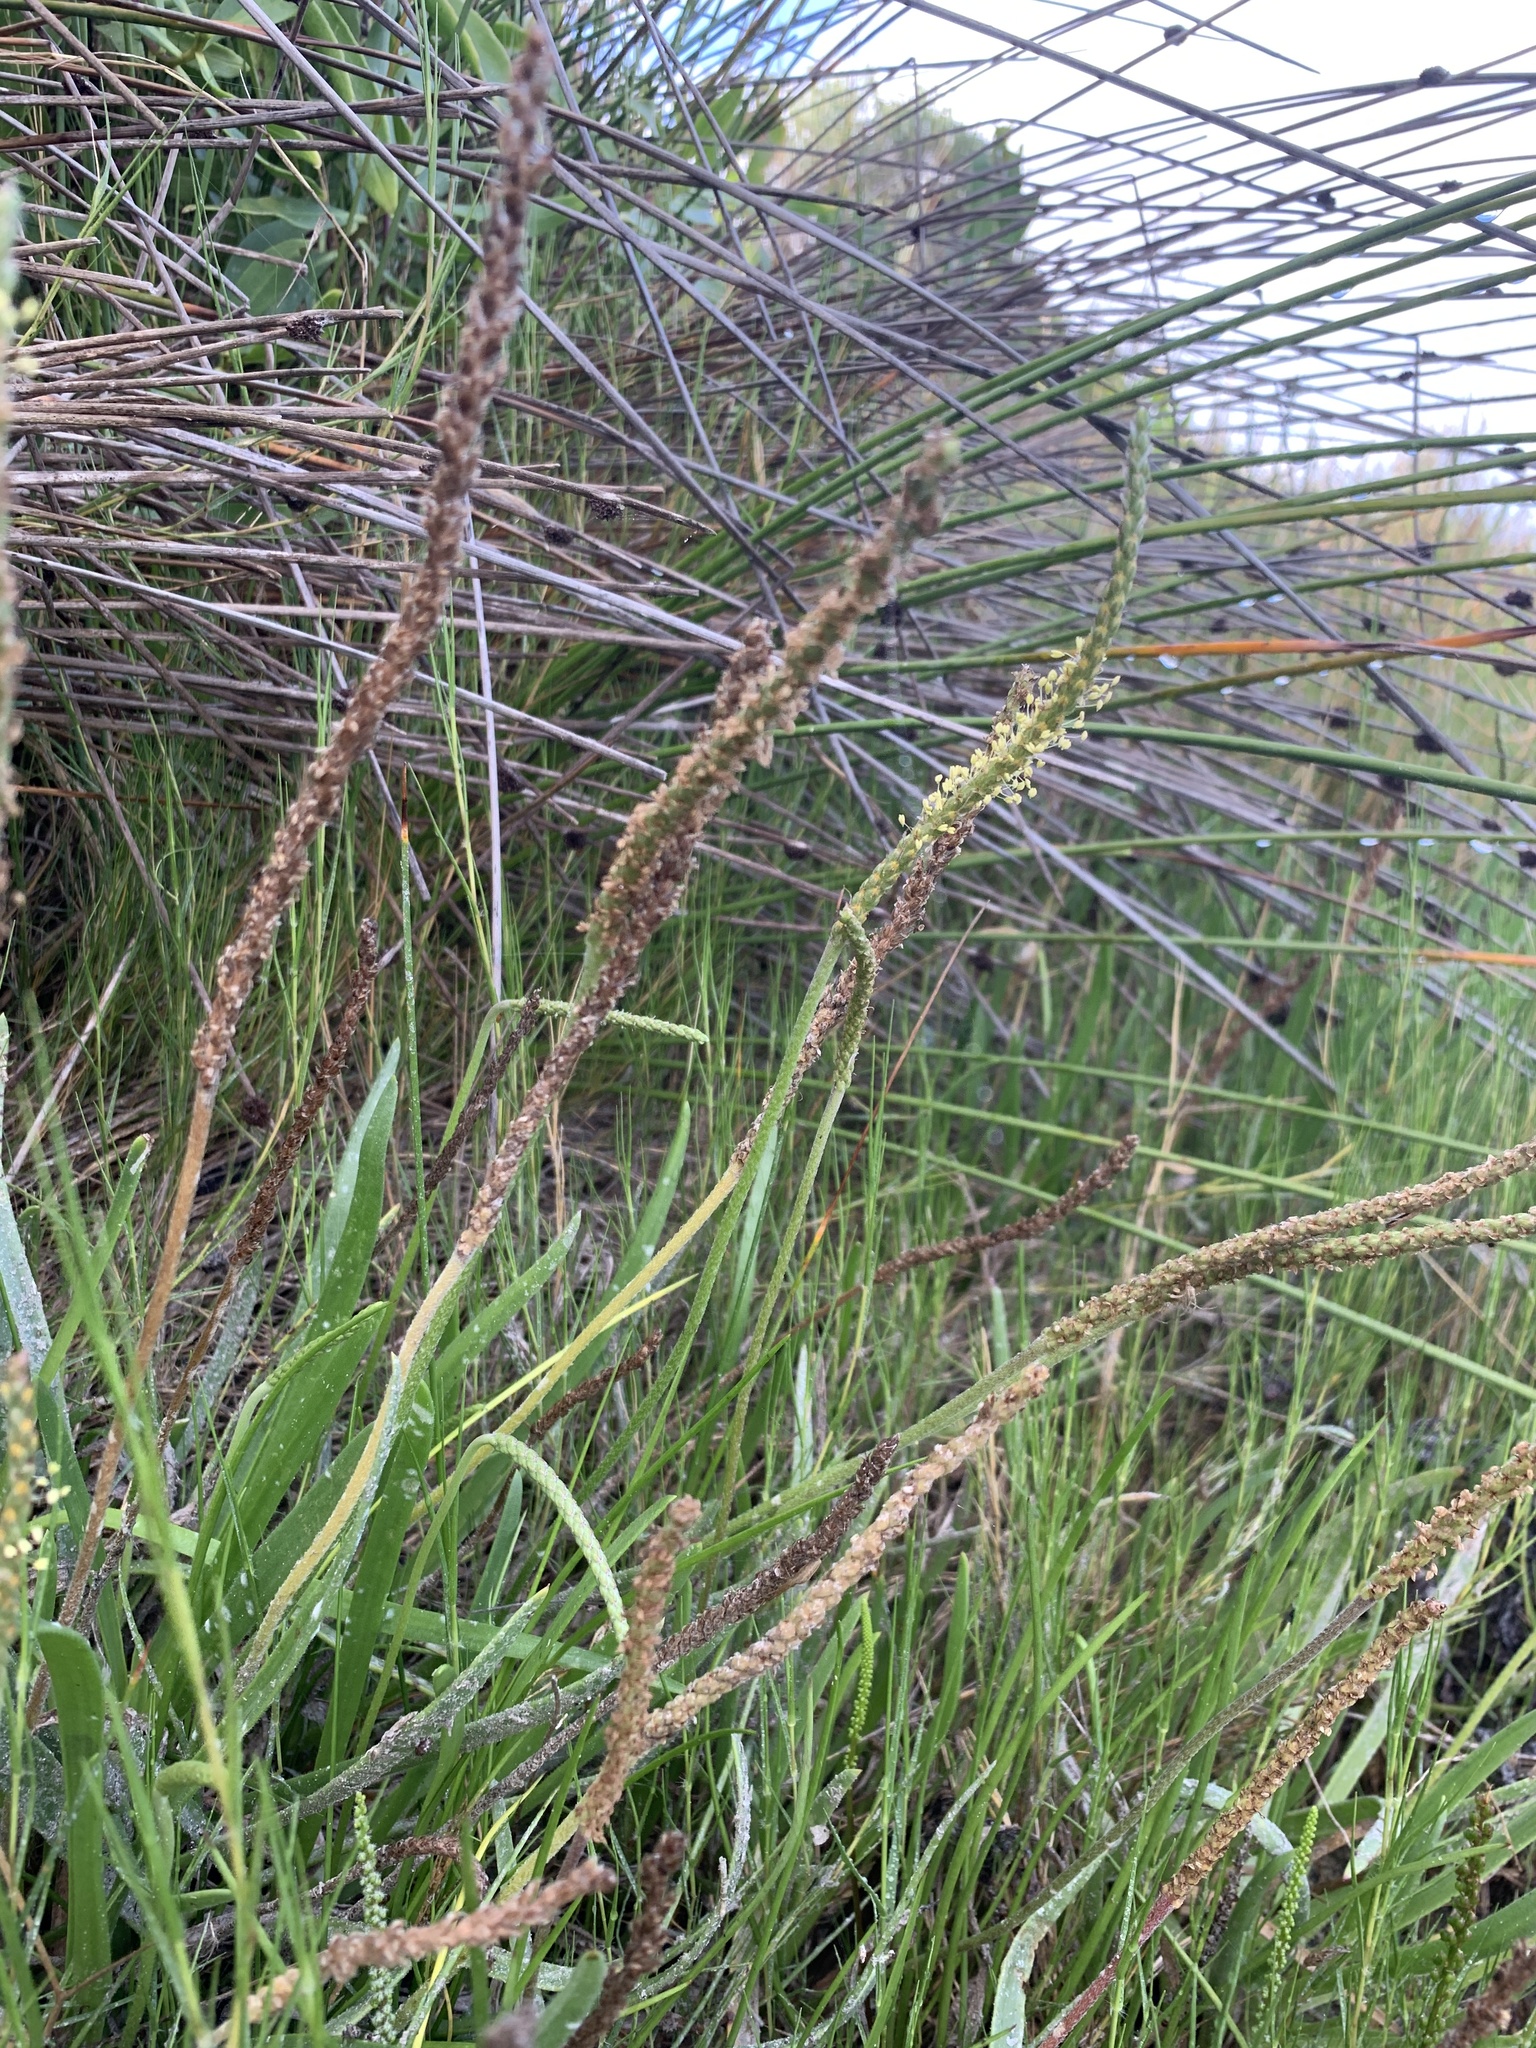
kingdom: Plantae
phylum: Tracheophyta
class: Magnoliopsida
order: Lamiales
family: Plantaginaceae
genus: Plantago
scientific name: Plantago carnosa
